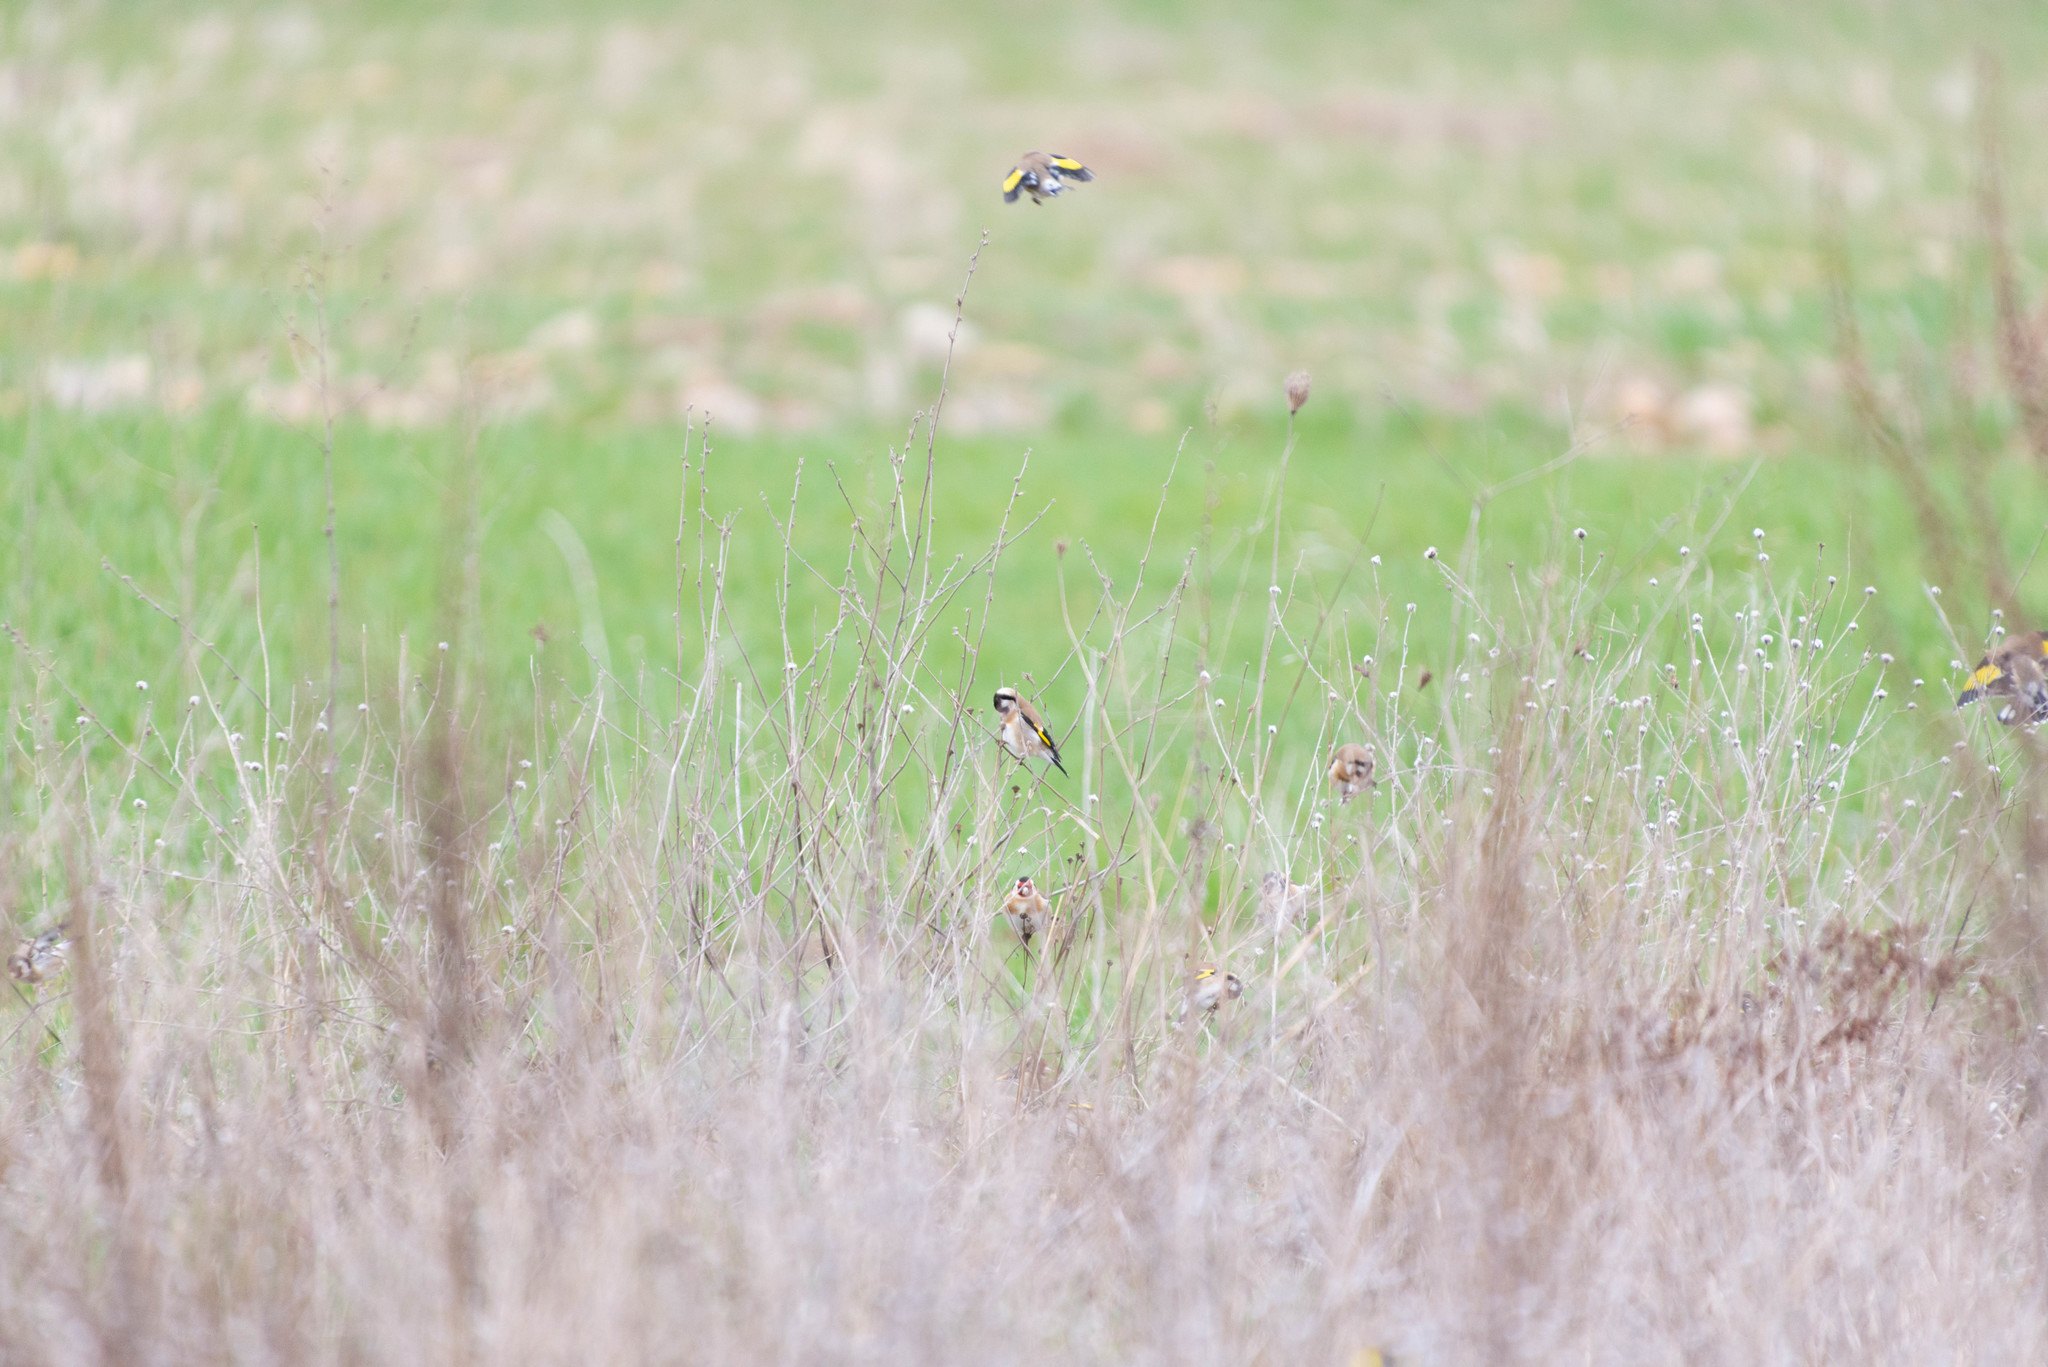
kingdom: Animalia
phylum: Chordata
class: Aves
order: Passeriformes
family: Fringillidae
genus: Carduelis
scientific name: Carduelis carduelis
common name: European goldfinch
